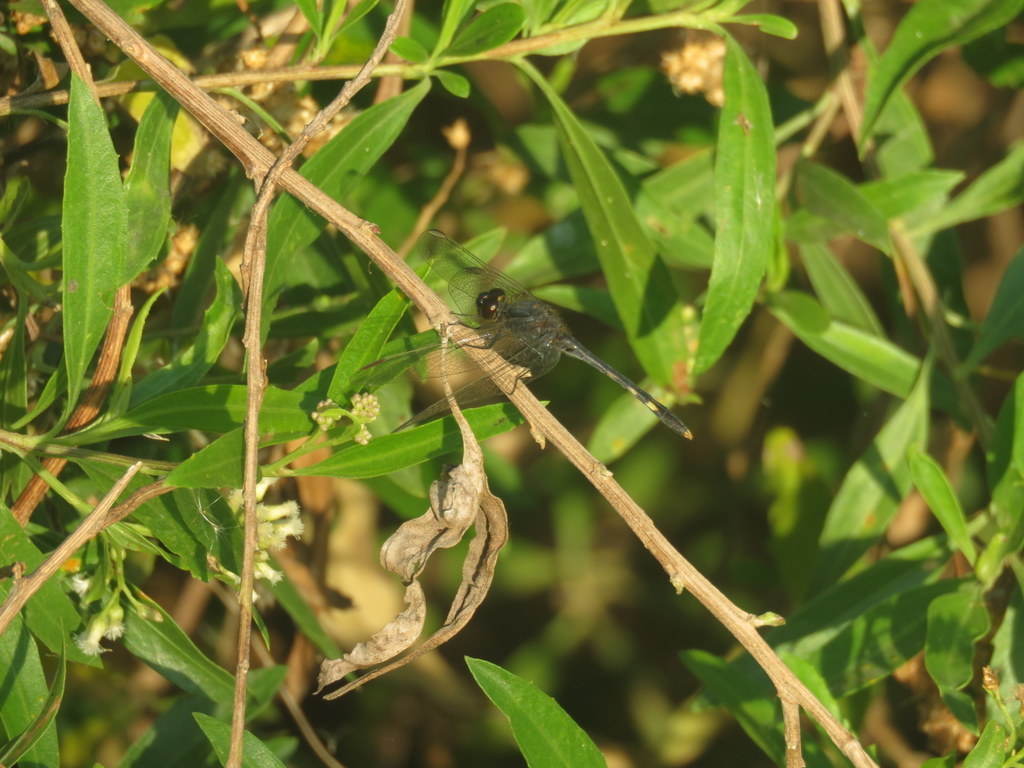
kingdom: Animalia
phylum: Arthropoda
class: Insecta
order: Odonata
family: Libellulidae
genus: Erythrodiplax
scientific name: Erythrodiplax nigricans
